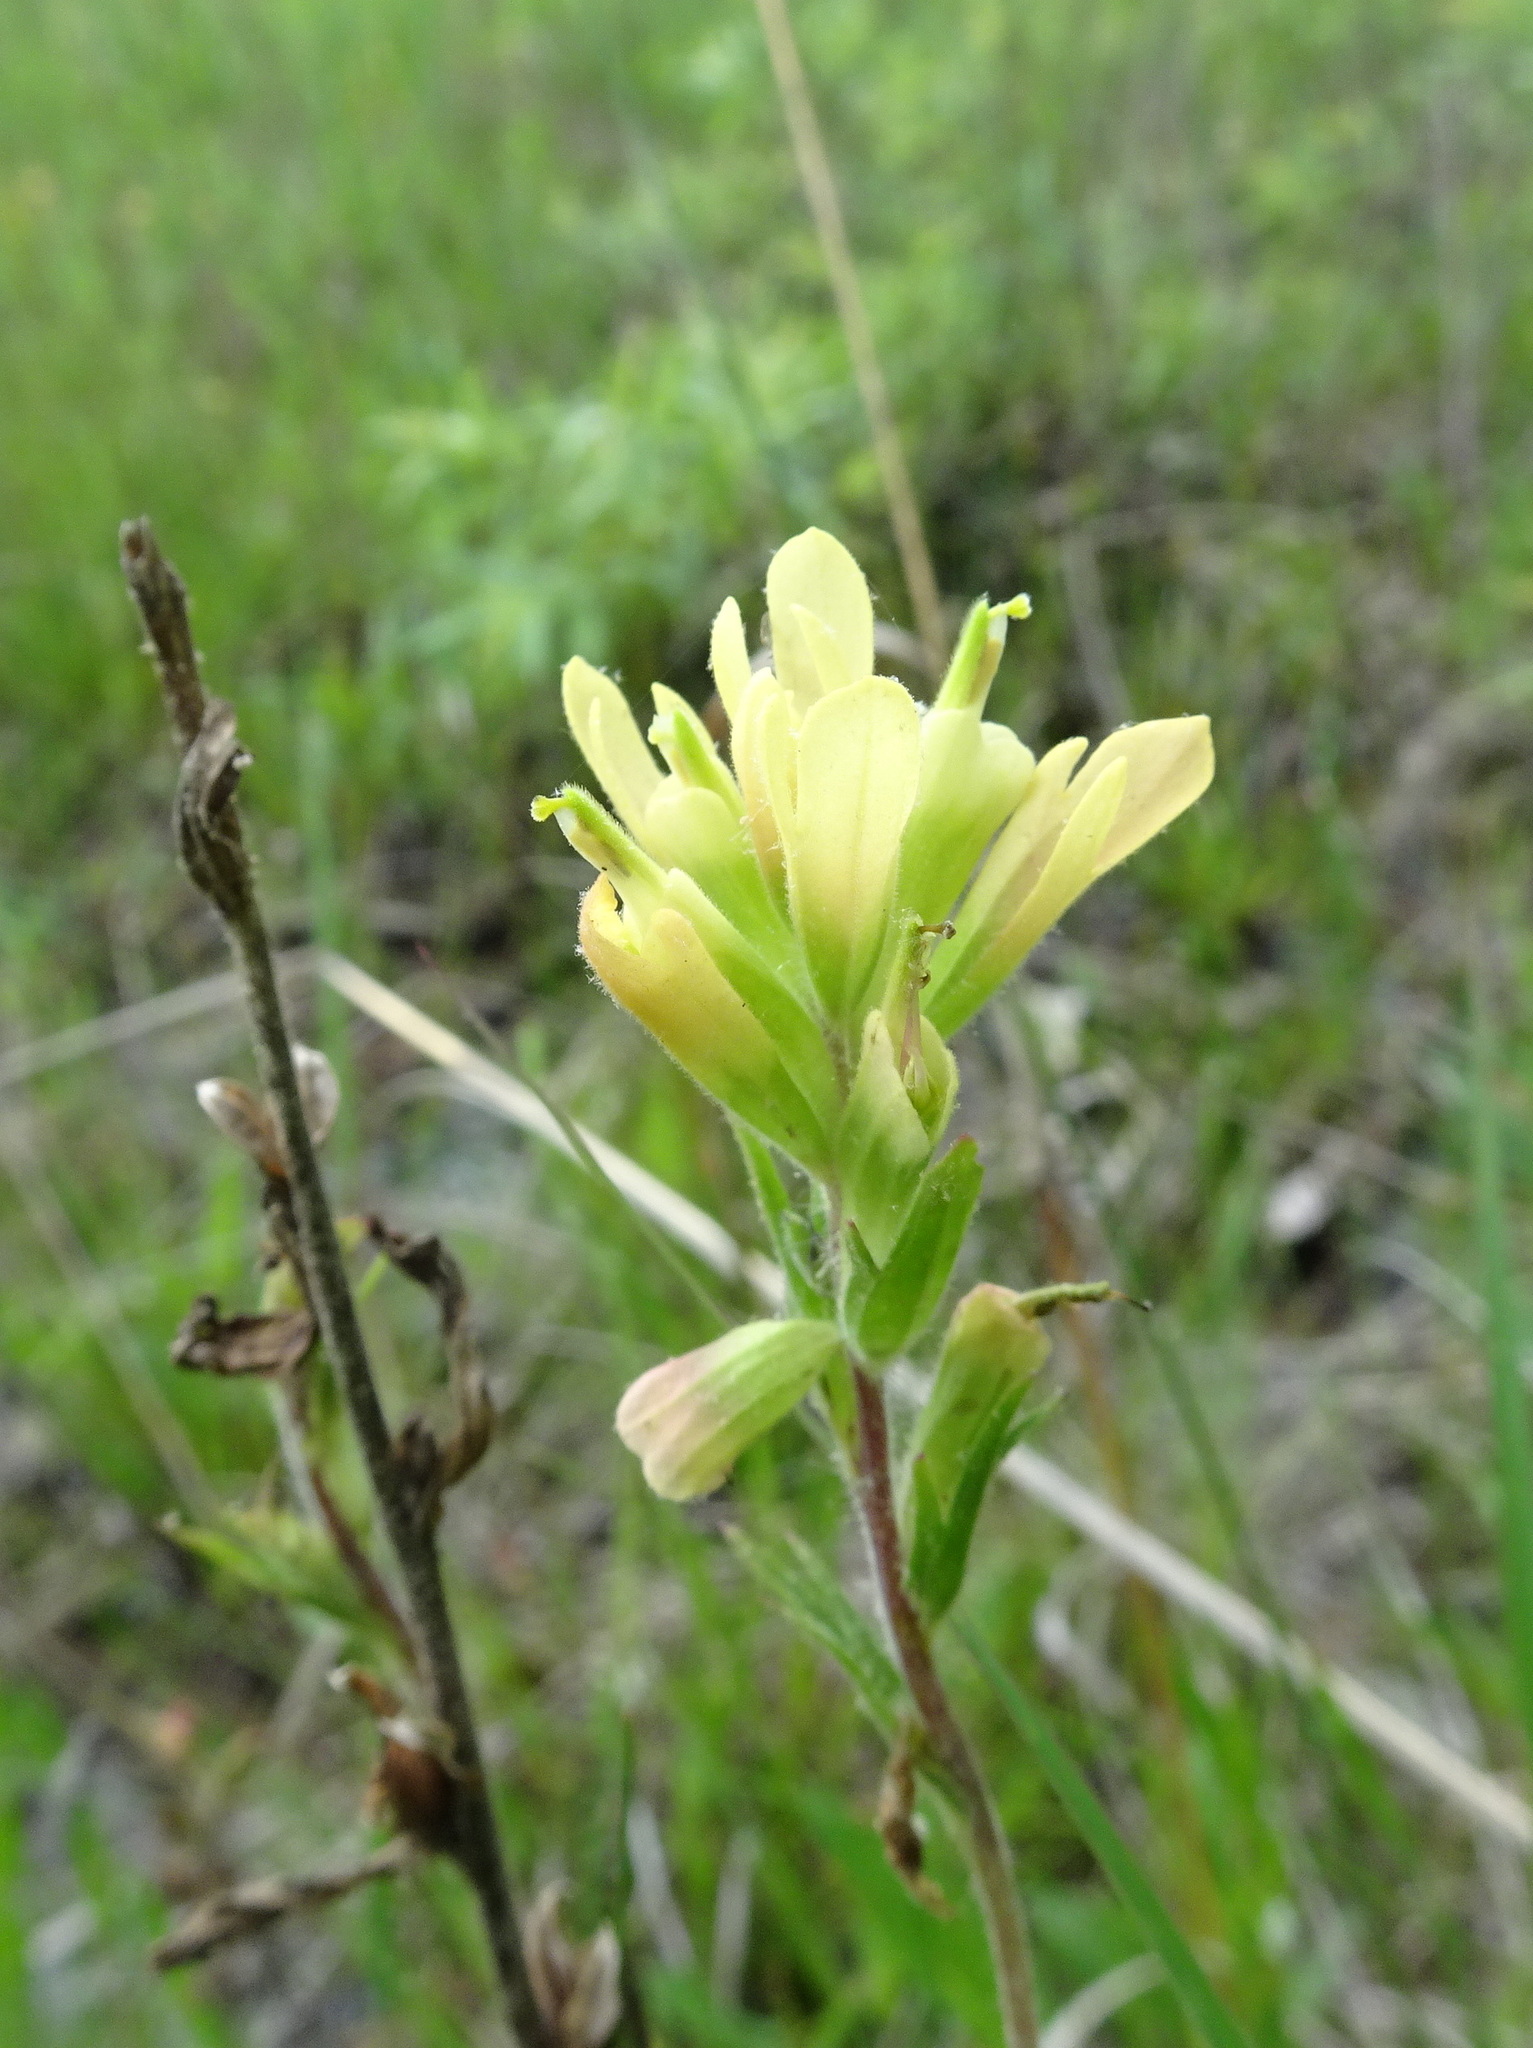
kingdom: Plantae
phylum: Tracheophyta
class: Magnoliopsida
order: Lamiales
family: Orobanchaceae
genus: Castilleja
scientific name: Castilleja coccinea
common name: Scarlet paintbrush
